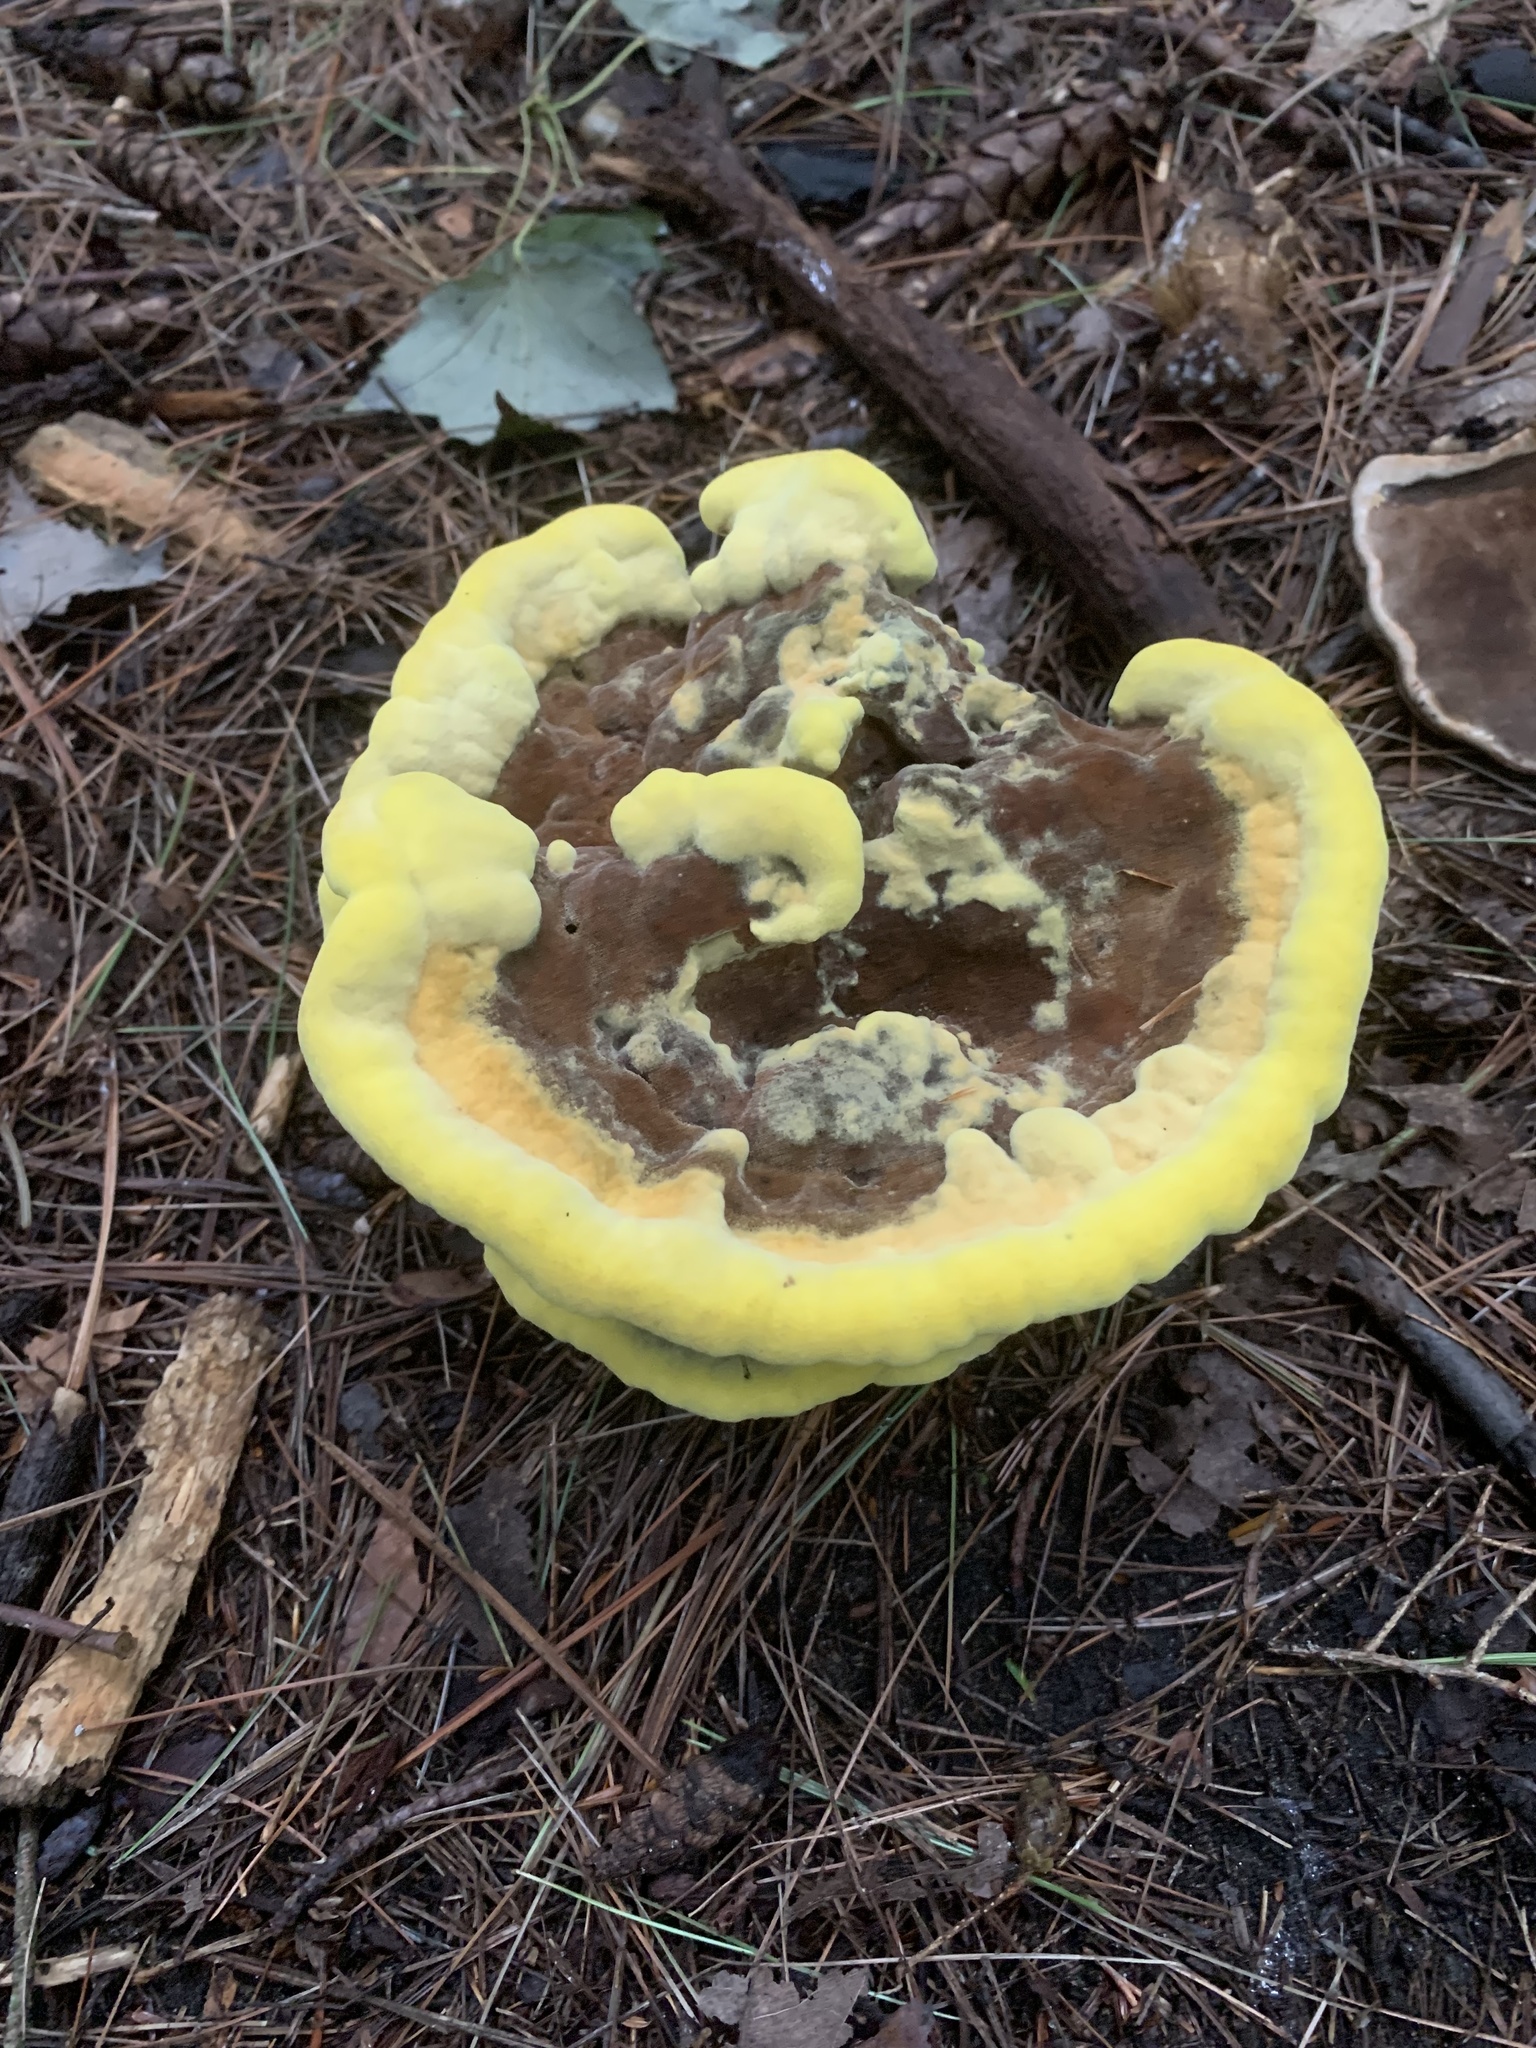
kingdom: Fungi
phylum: Basidiomycota
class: Agaricomycetes
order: Polyporales
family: Laetiporaceae
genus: Phaeolus
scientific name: Phaeolus schweinitzii
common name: Dyer's mazegill
